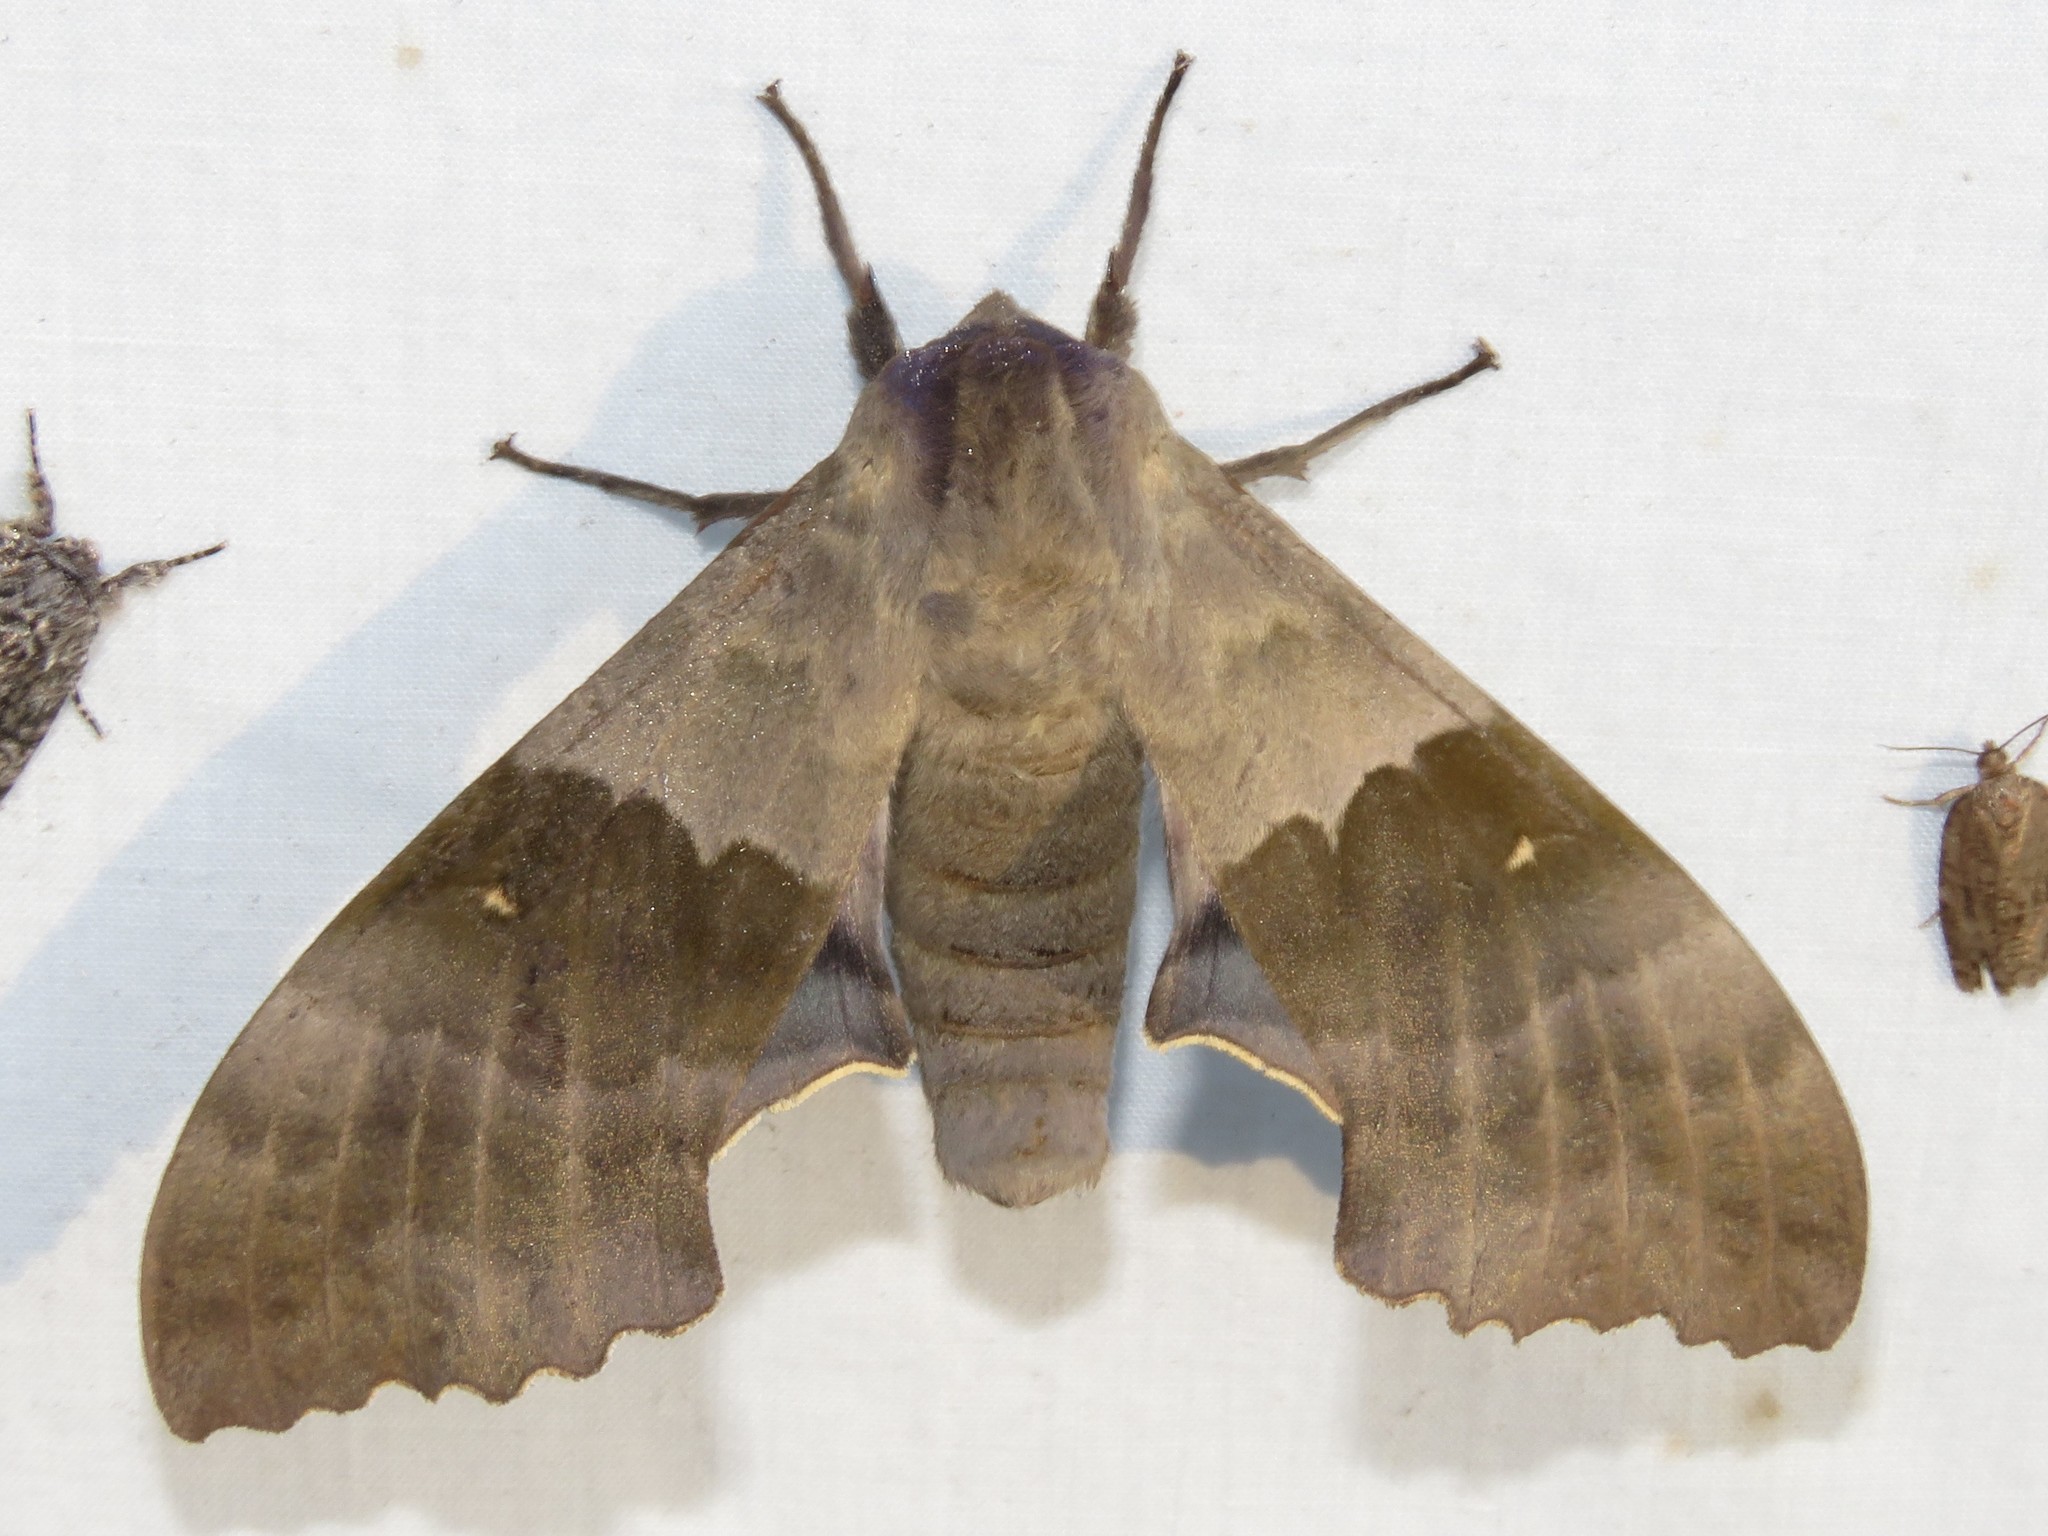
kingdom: Animalia
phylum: Arthropoda
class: Insecta
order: Lepidoptera
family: Sphingidae
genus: Pachysphinx
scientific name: Pachysphinx modesta
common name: Big poplar sphinx
